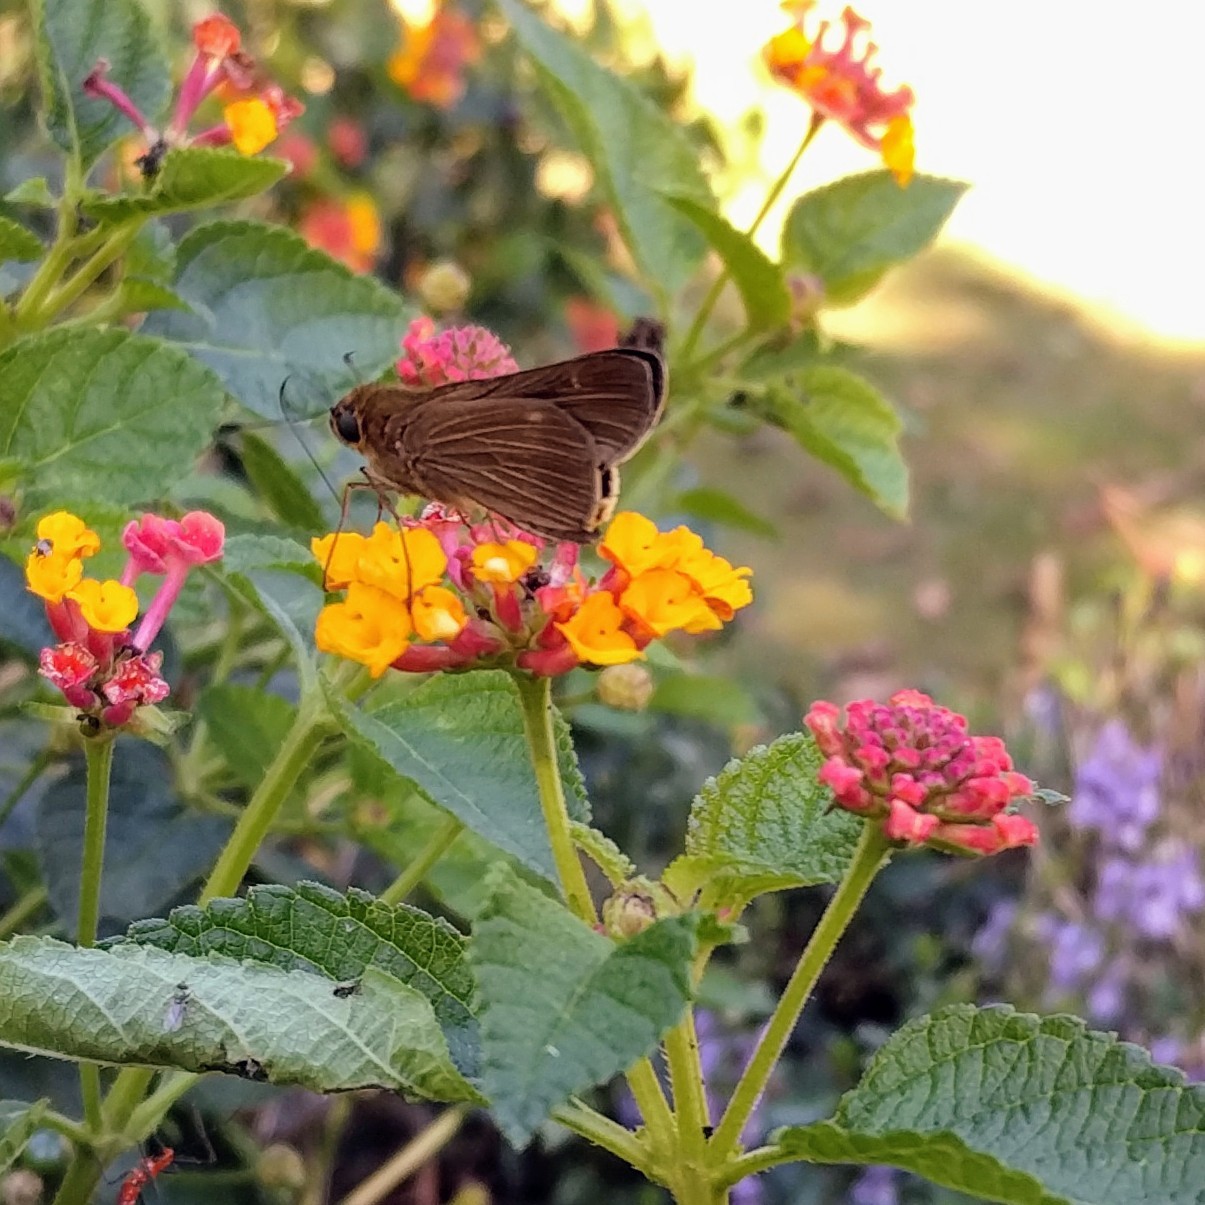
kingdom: Animalia
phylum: Arthropoda
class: Insecta
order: Lepidoptera
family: Hesperiidae
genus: Panoquina
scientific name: Panoquina ocola
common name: Ocola skipper
